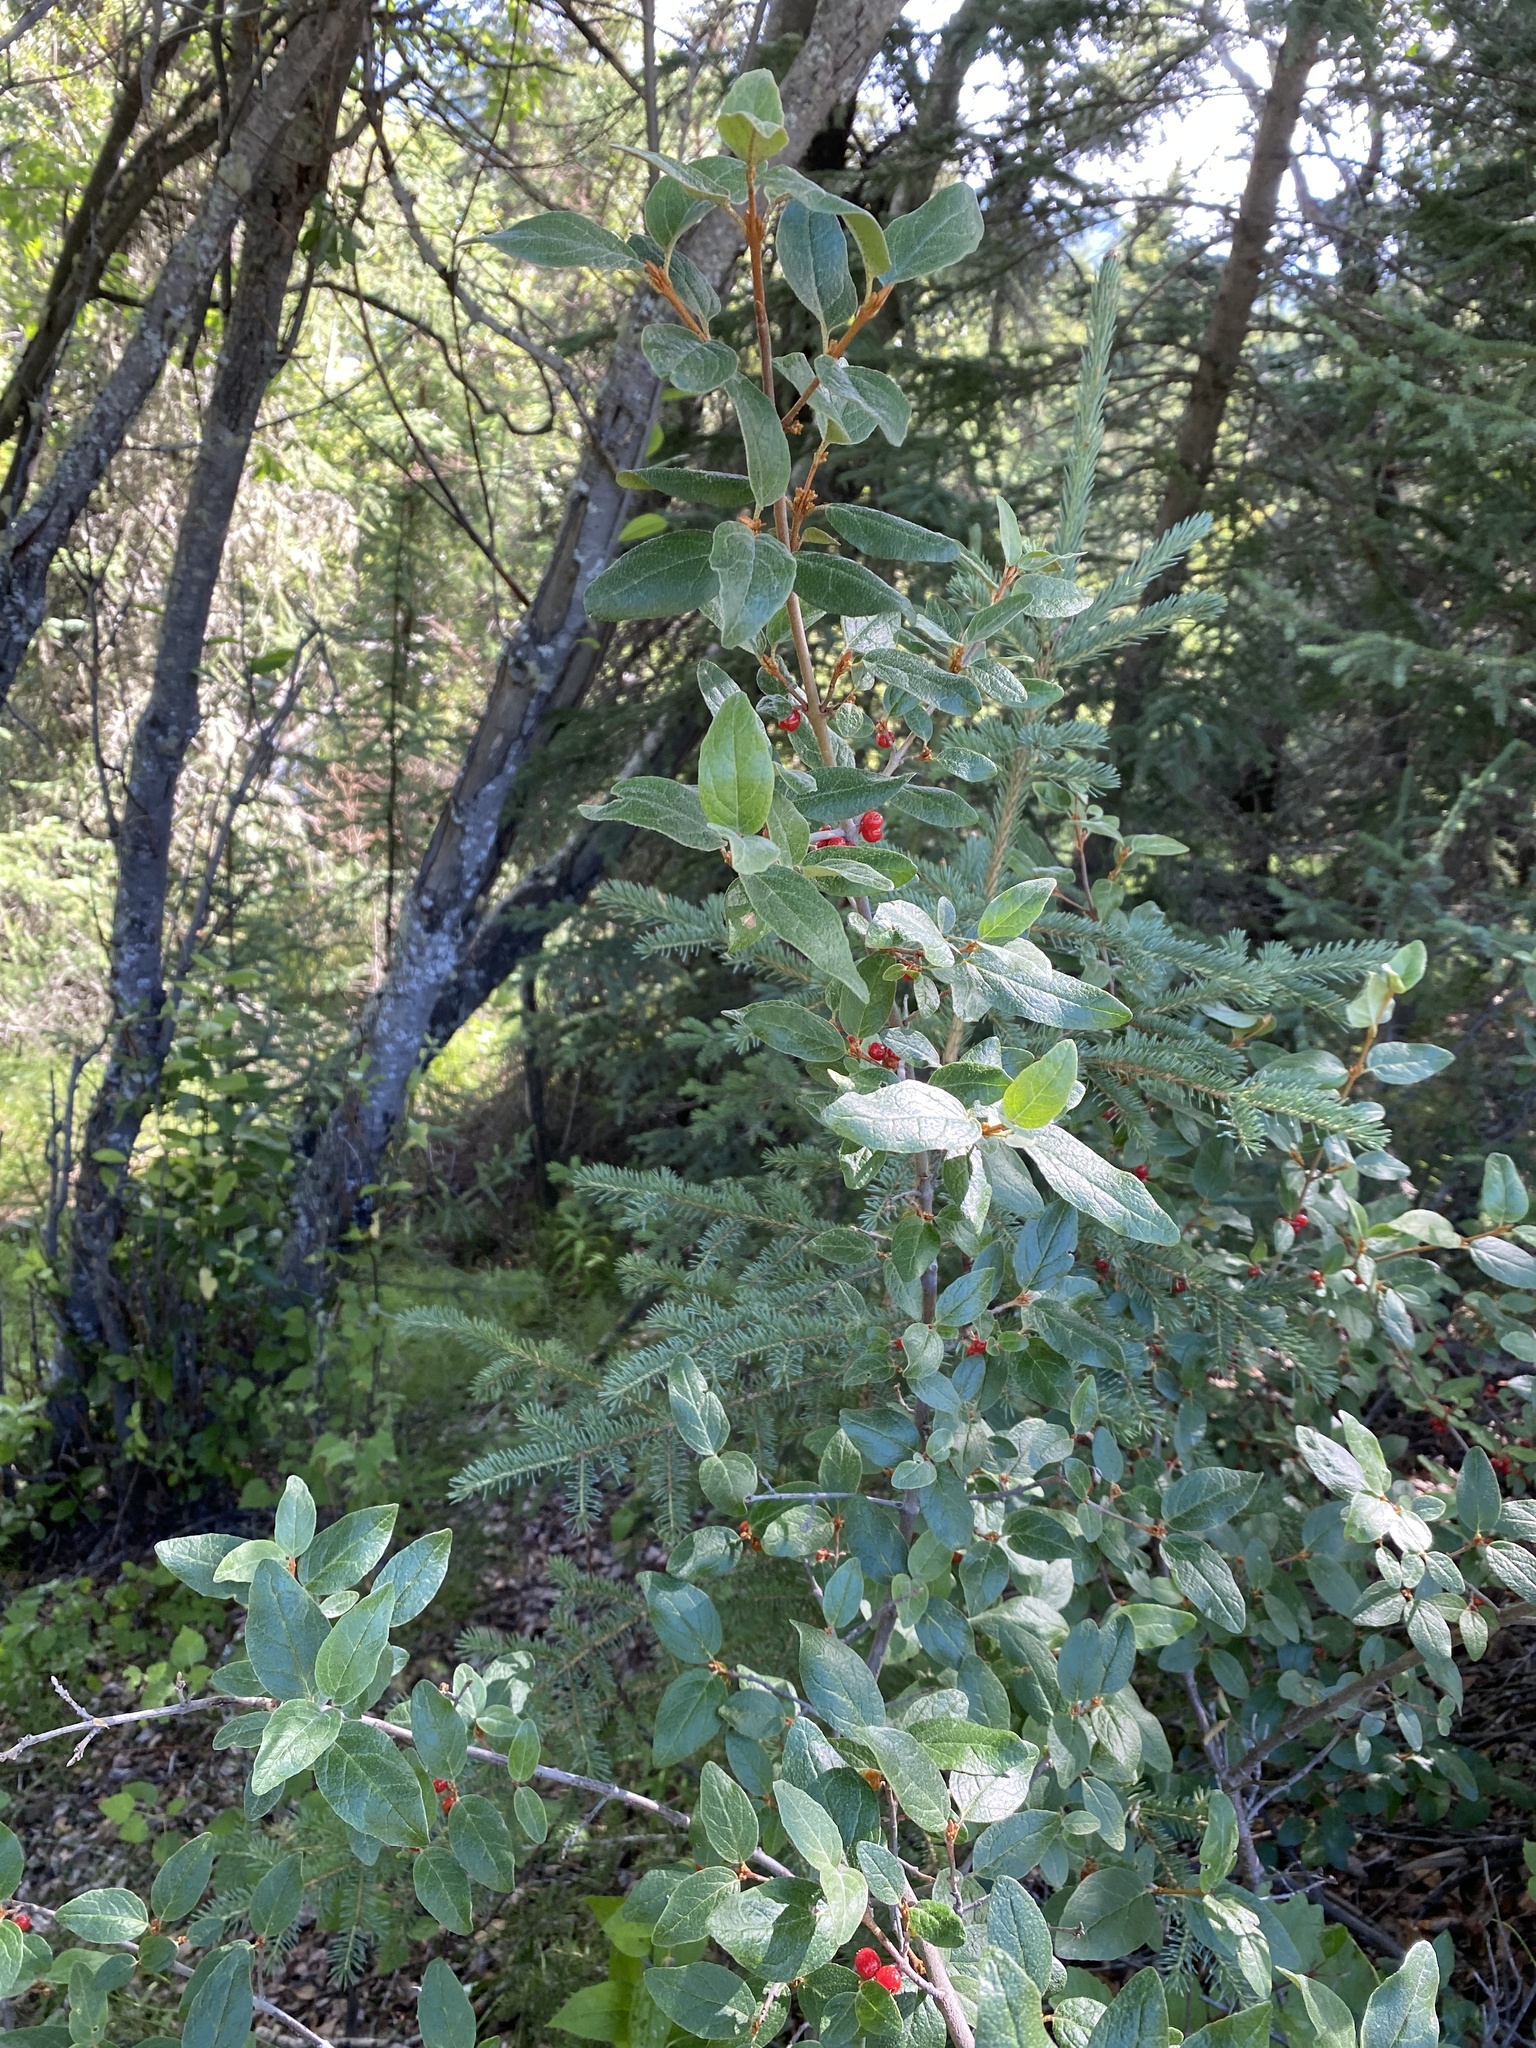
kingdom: Plantae
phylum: Tracheophyta
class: Magnoliopsida
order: Rosales
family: Elaeagnaceae
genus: Shepherdia
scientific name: Shepherdia canadensis
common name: Soapberry
